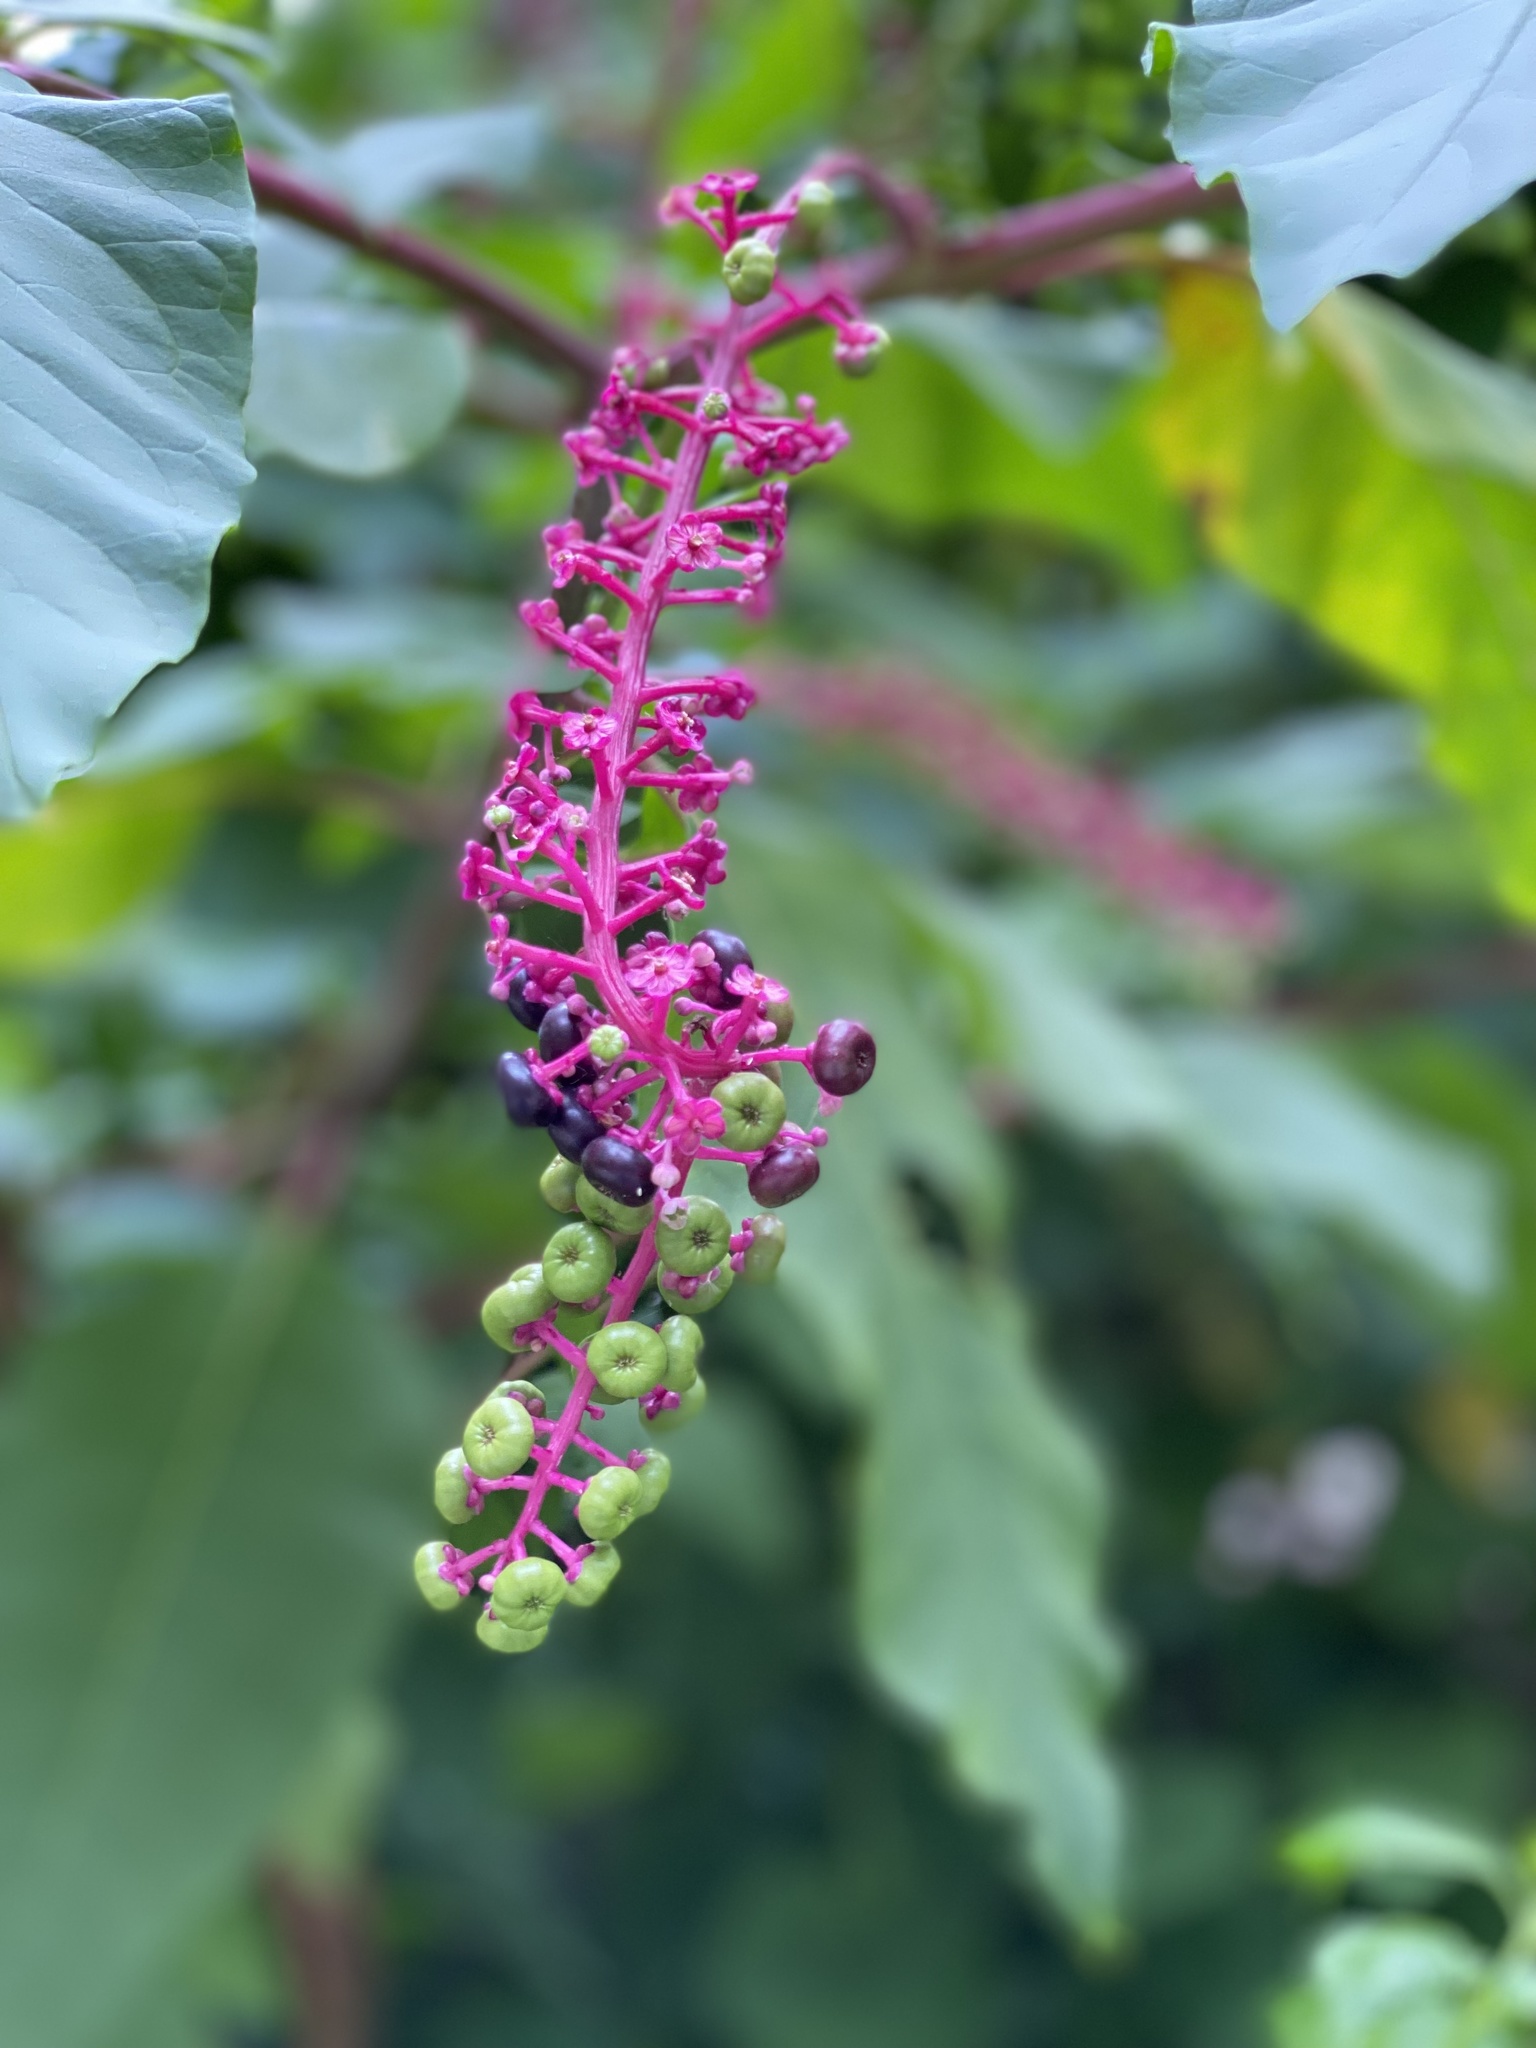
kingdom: Plantae
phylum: Tracheophyta
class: Magnoliopsida
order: Caryophyllales
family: Phytolaccaceae
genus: Phytolacca
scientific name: Phytolacca americana
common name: American pokeweed
